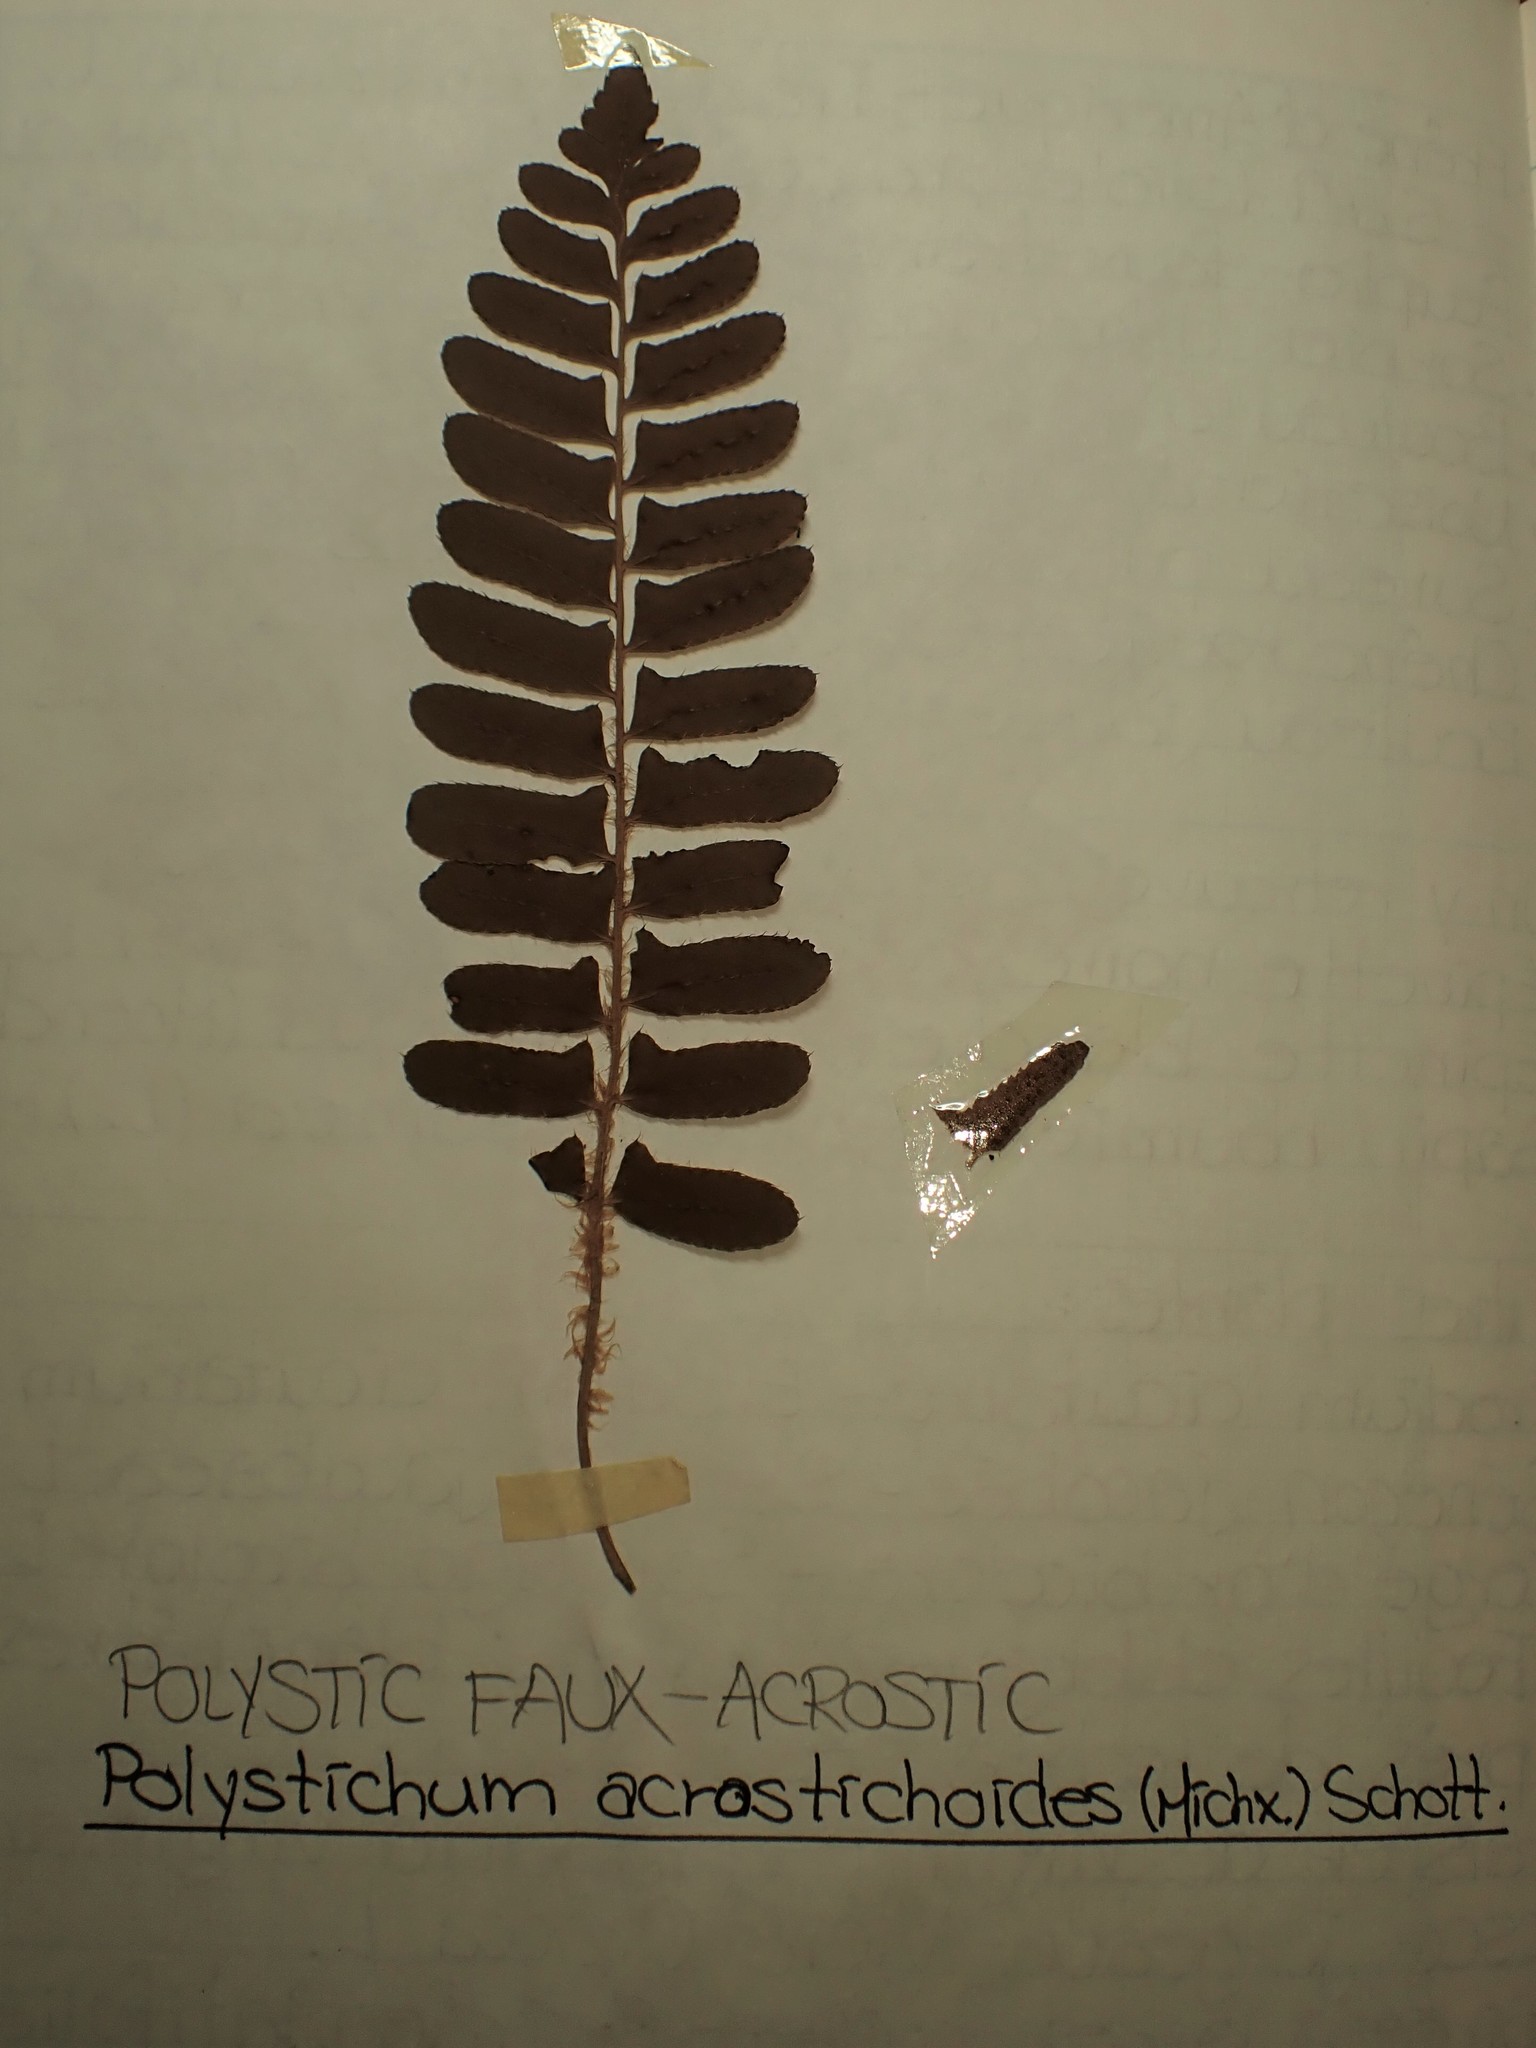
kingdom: Plantae
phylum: Tracheophyta
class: Polypodiopsida
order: Polypodiales
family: Dryopteridaceae
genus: Polystichum
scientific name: Polystichum acrostichoides
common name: Christmas fern
